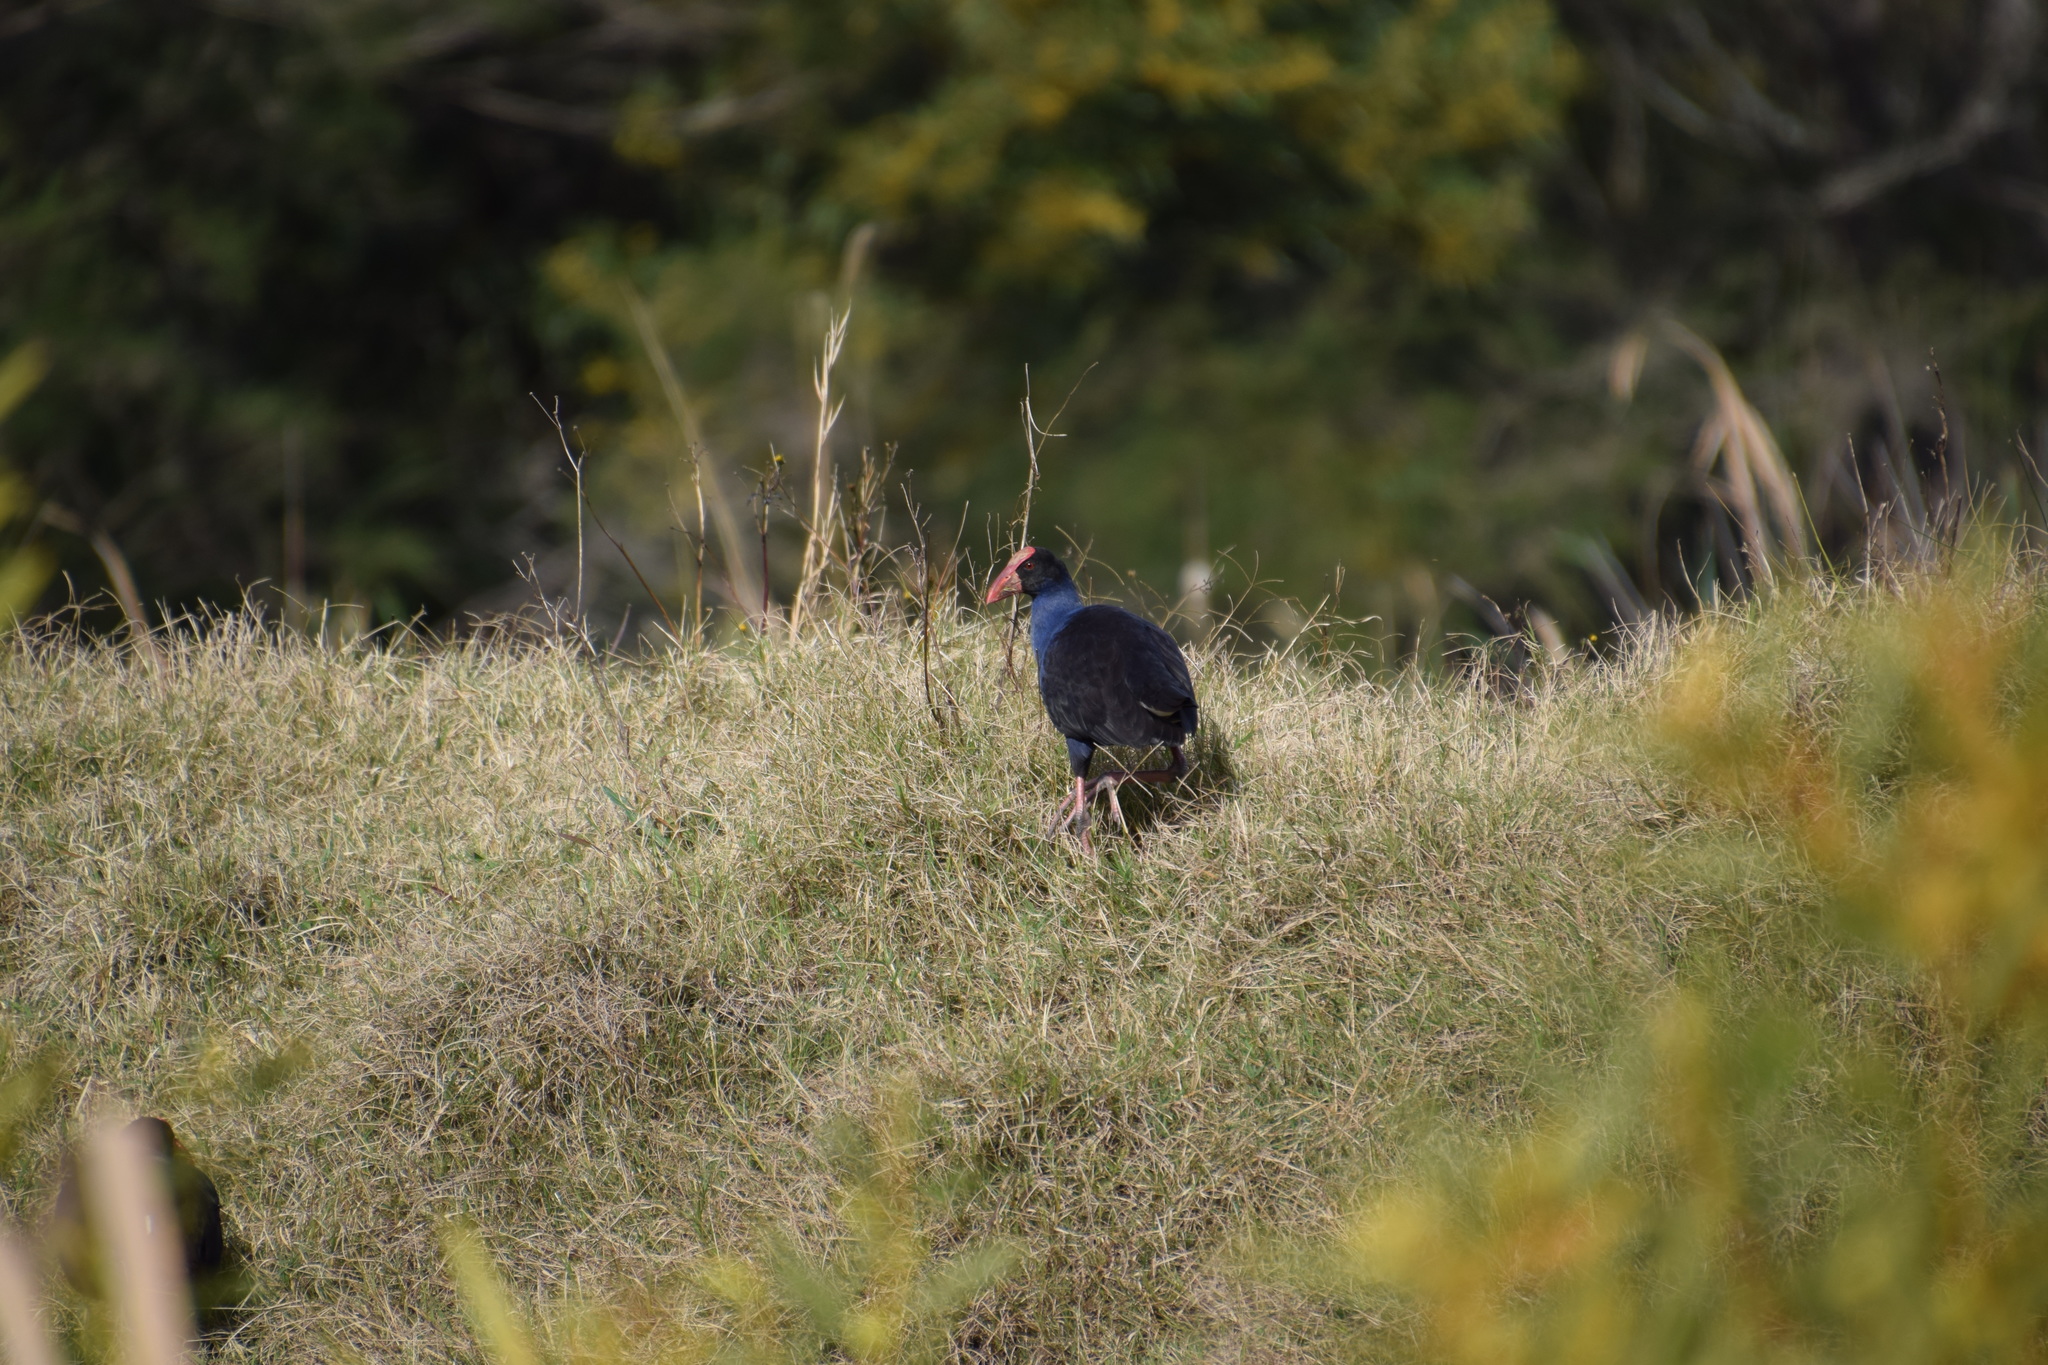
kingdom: Animalia
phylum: Chordata
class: Aves
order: Gruiformes
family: Rallidae
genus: Porphyrio
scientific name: Porphyrio melanotus
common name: Australasian swamphen
